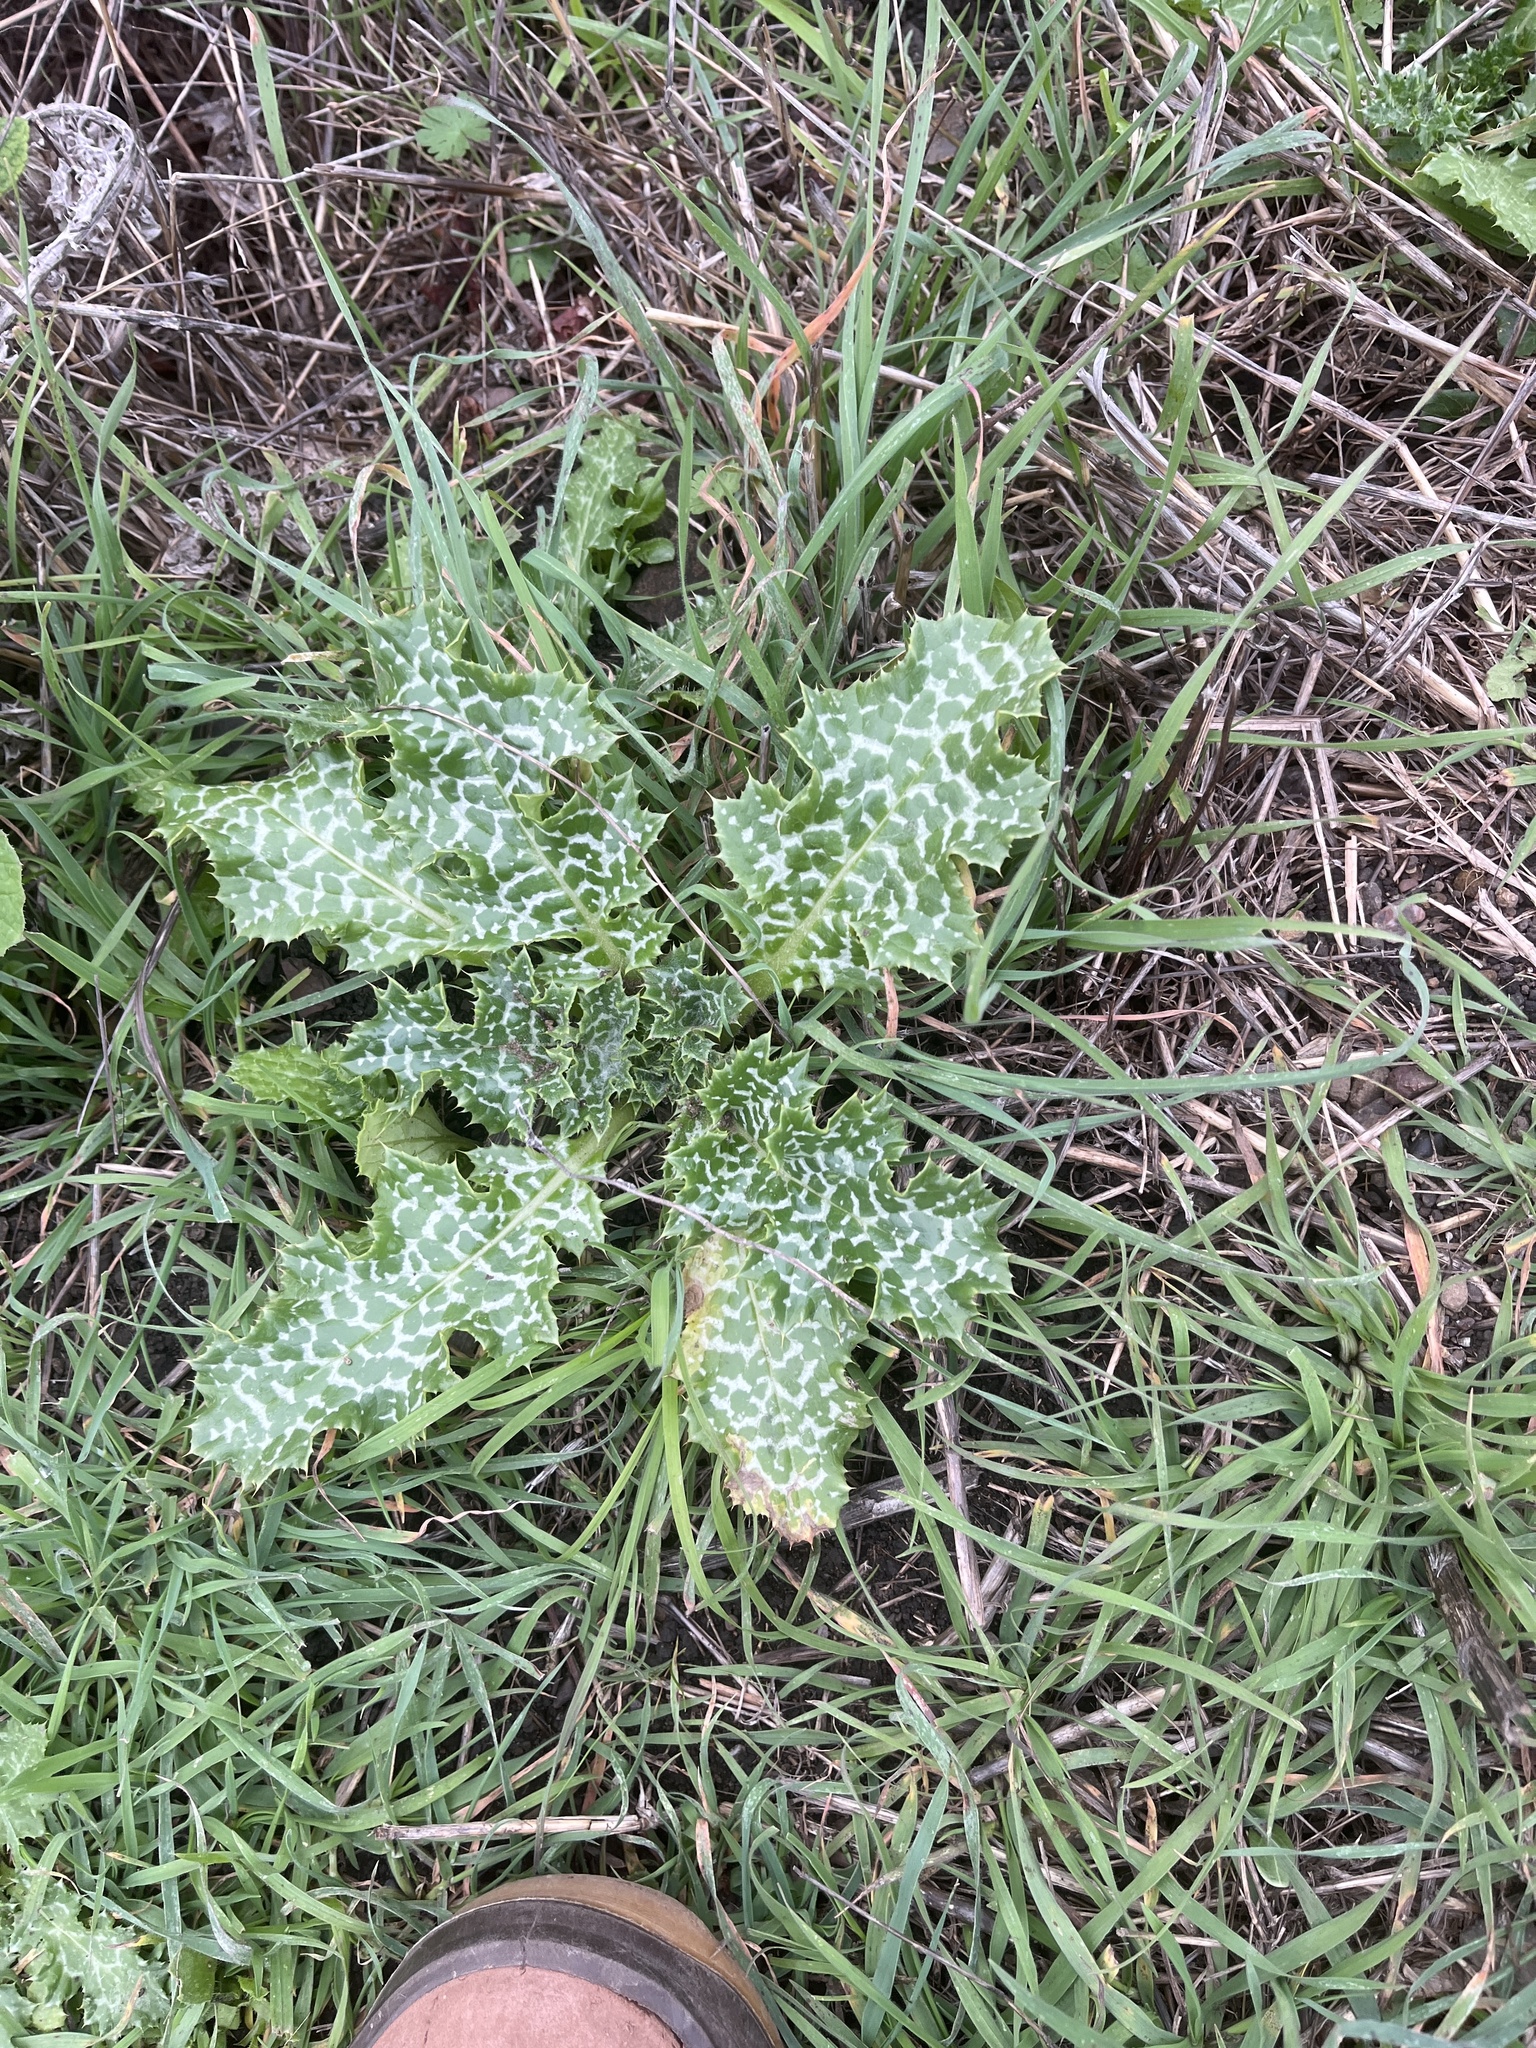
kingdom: Plantae
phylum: Tracheophyta
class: Magnoliopsida
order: Asterales
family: Asteraceae
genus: Silybum
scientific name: Silybum marianum
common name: Milk thistle
